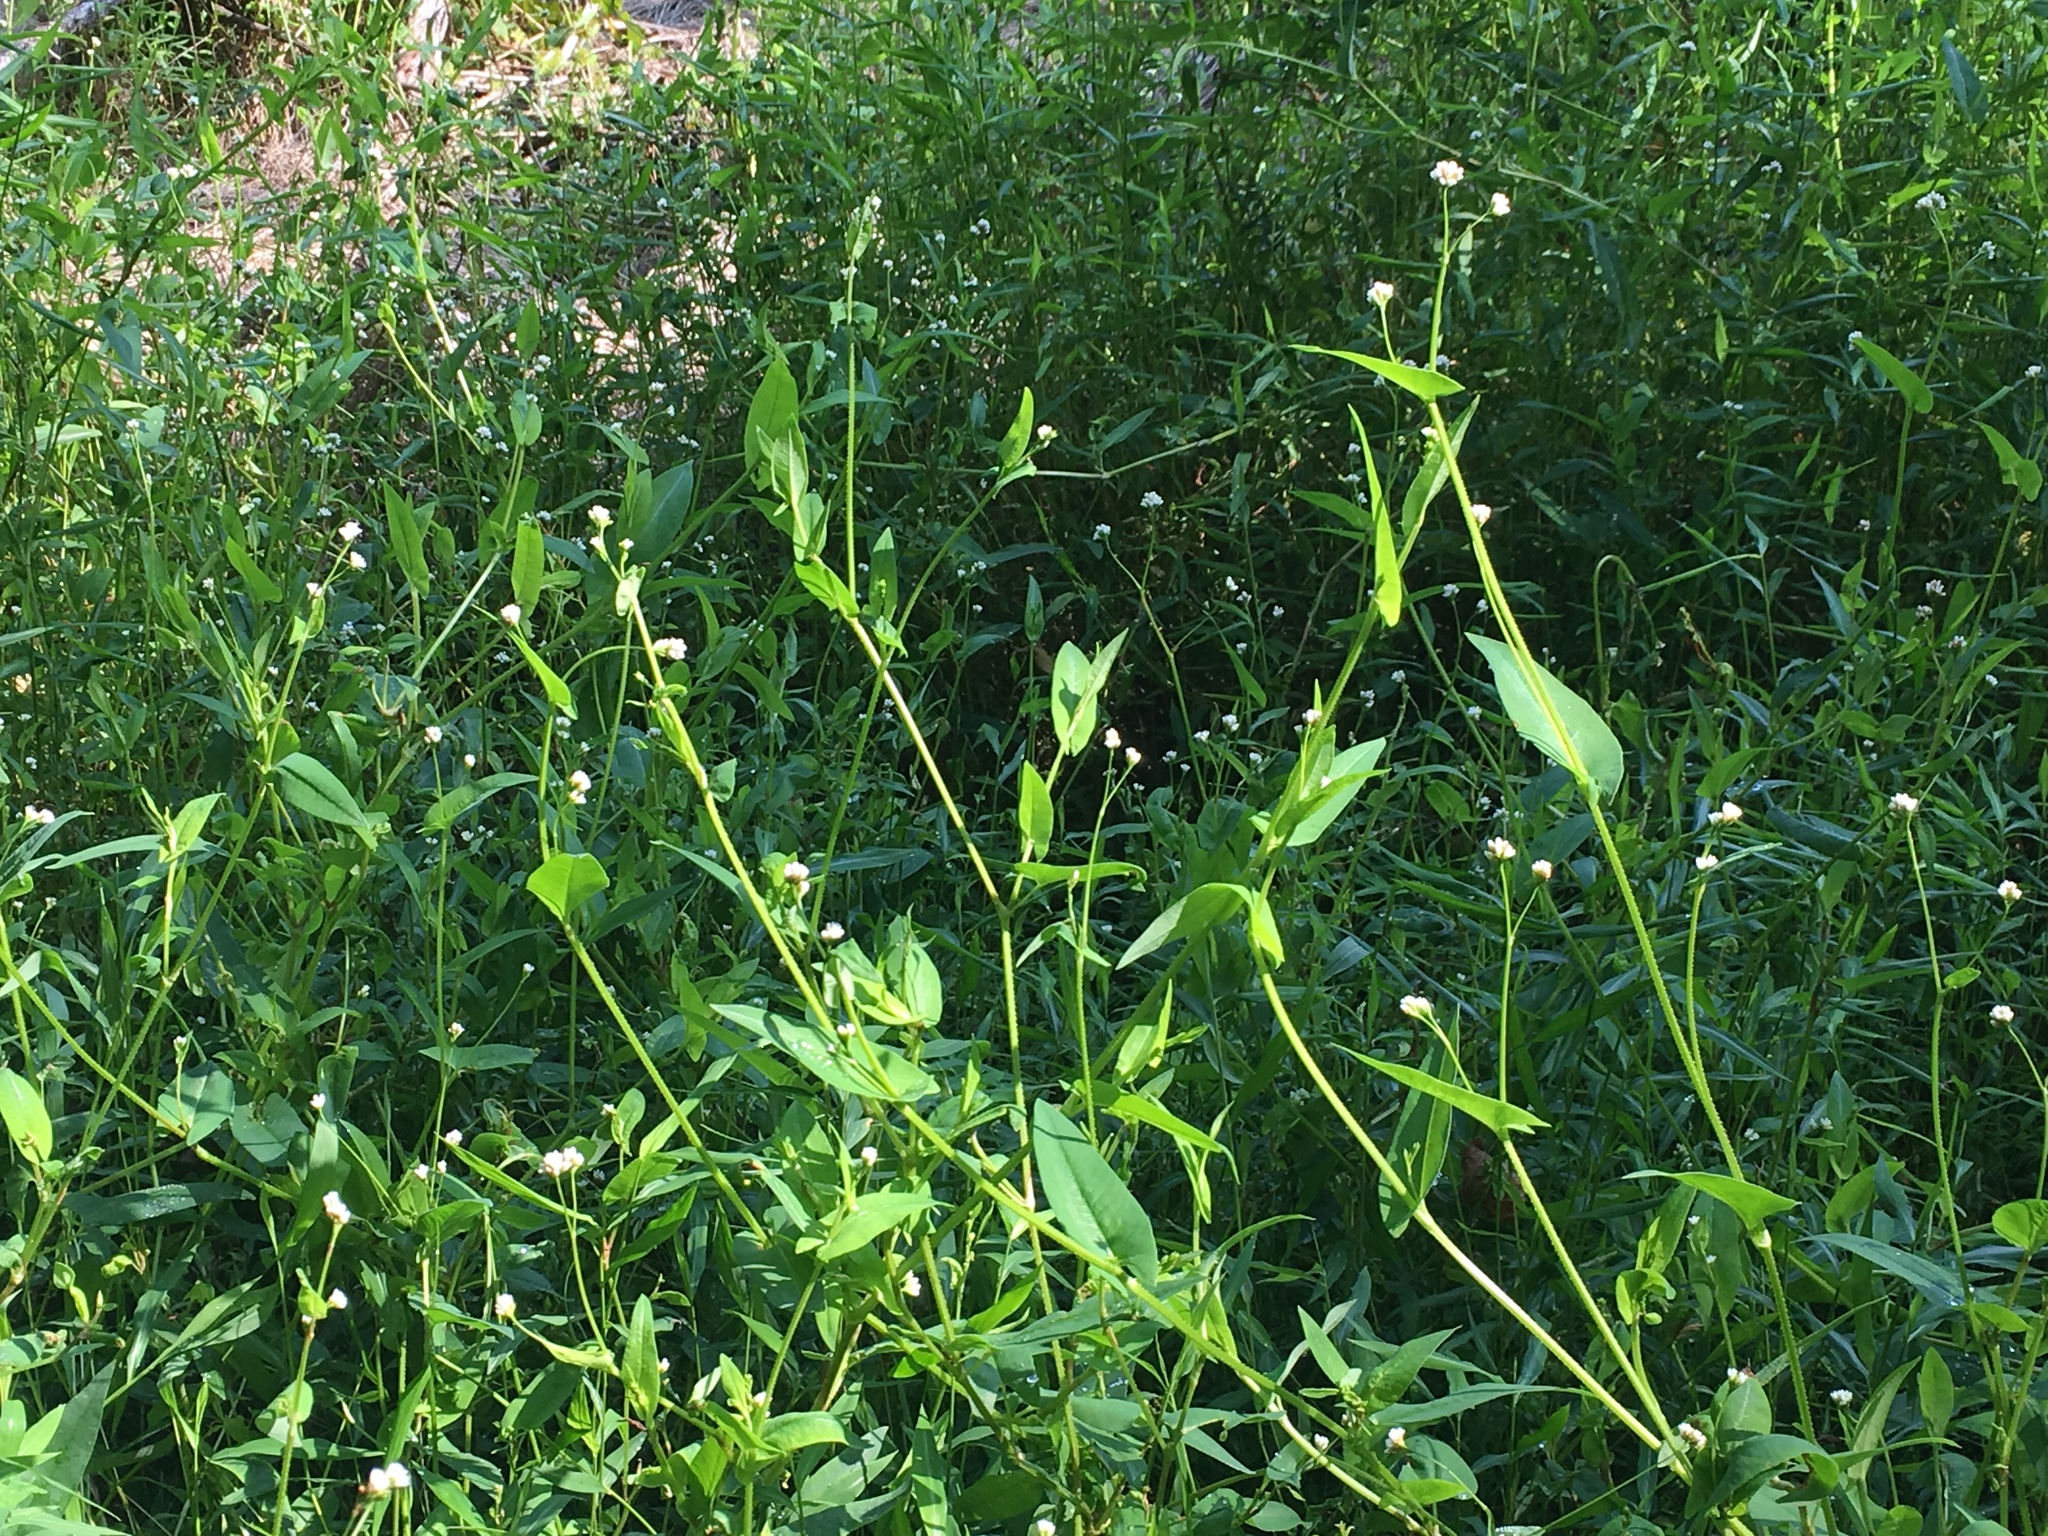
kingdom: Plantae
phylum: Tracheophyta
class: Magnoliopsida
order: Caryophyllales
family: Polygonaceae
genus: Persicaria
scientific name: Persicaria sagittata
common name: American tearthumb
